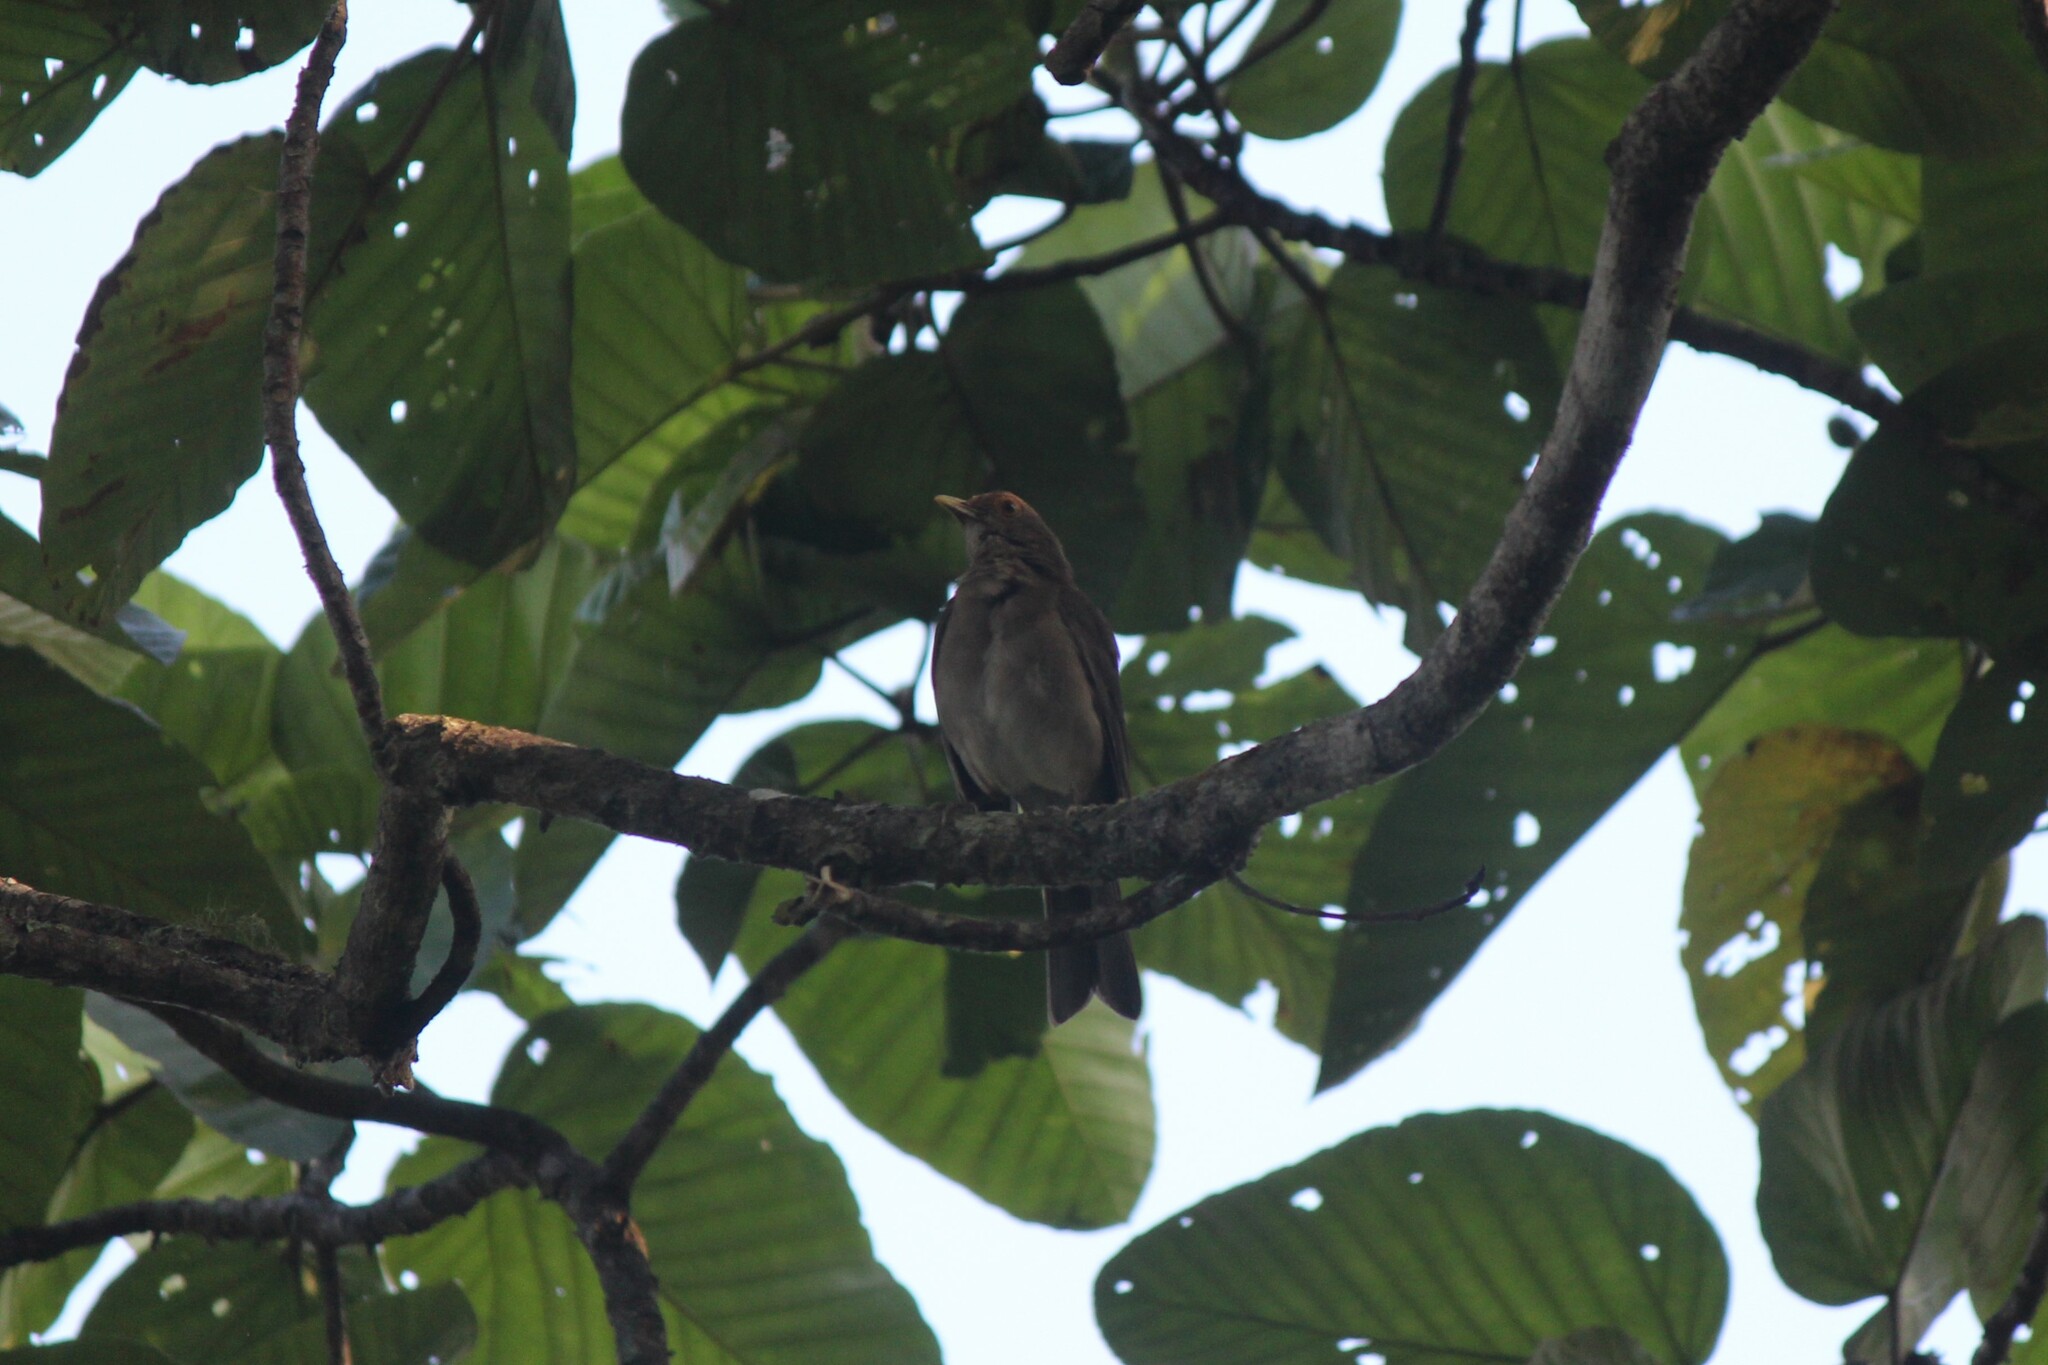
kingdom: Animalia
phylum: Chordata
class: Aves
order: Passeriformes
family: Turdidae
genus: Turdus
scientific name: Turdus maculirostris
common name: Ecuadorian thrush
